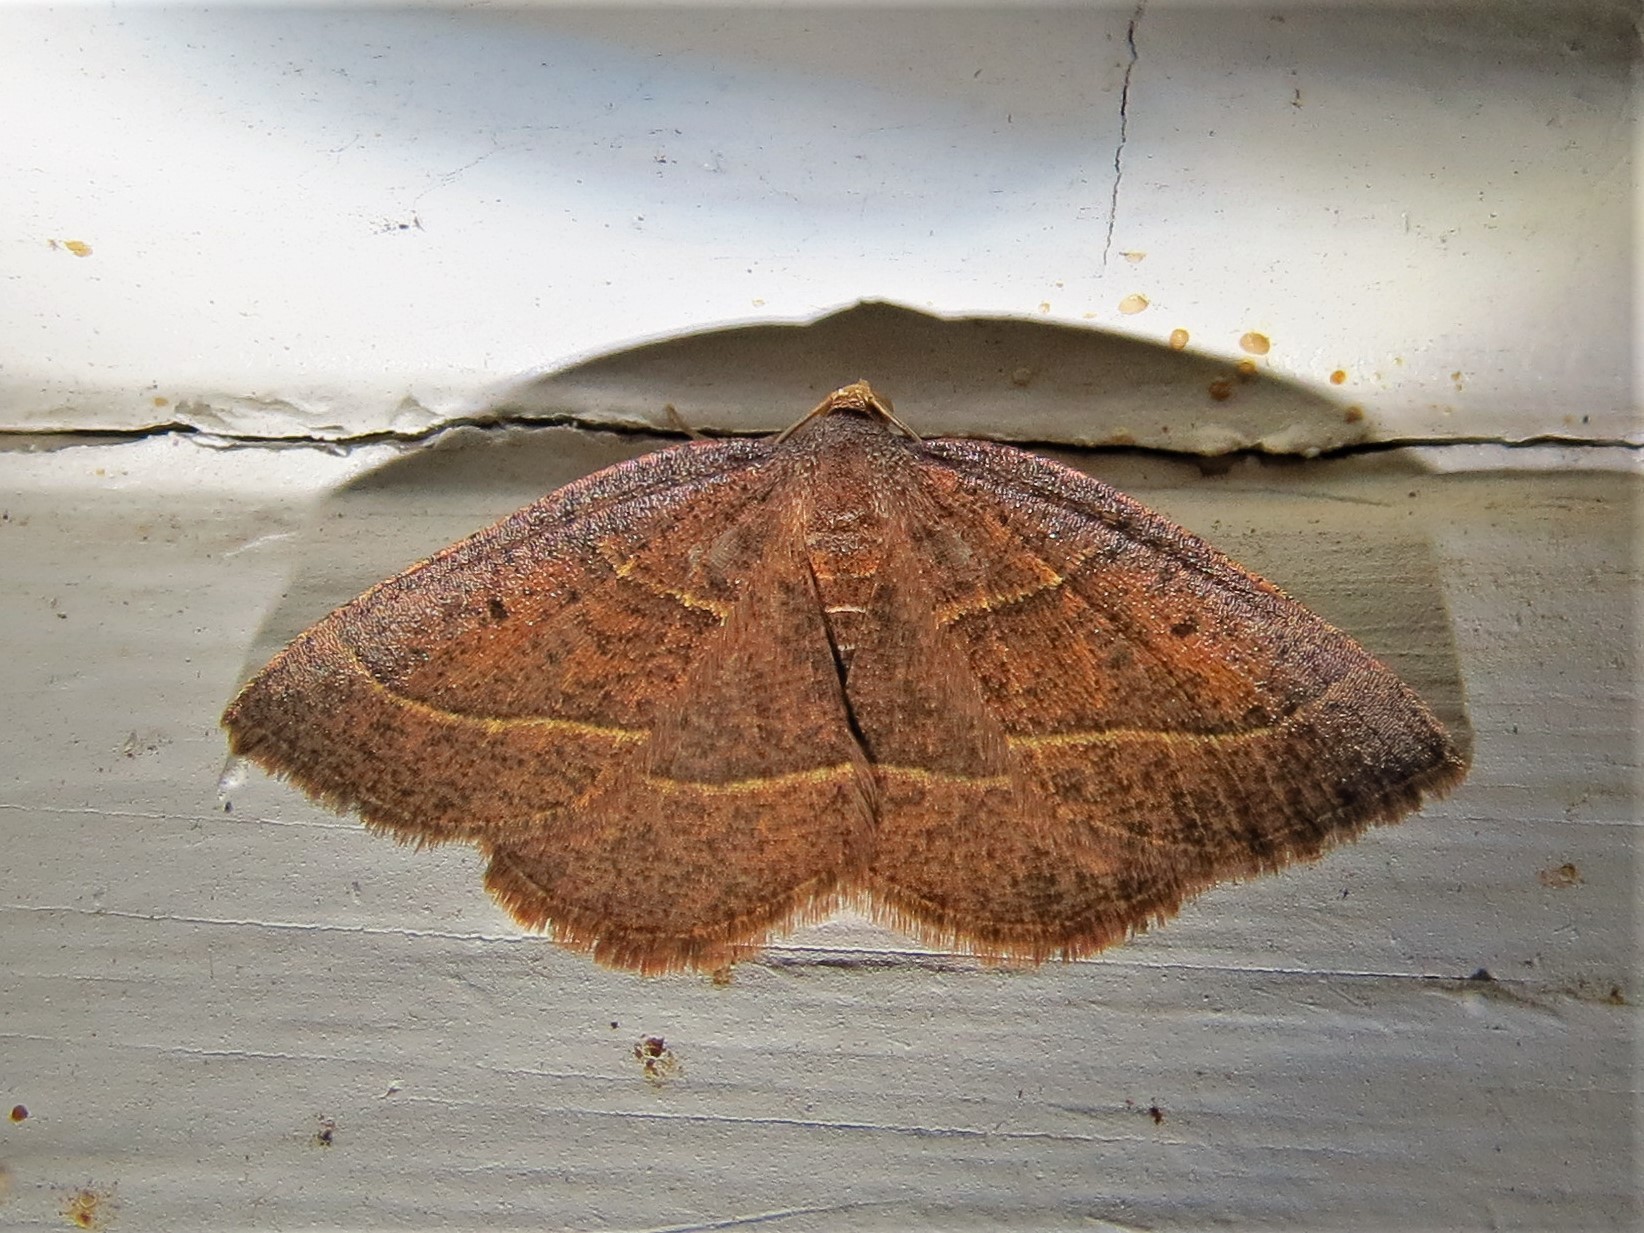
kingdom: Animalia
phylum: Arthropoda
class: Insecta
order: Lepidoptera
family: Geometridae
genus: Episemasia
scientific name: Episemasia cervinaria
